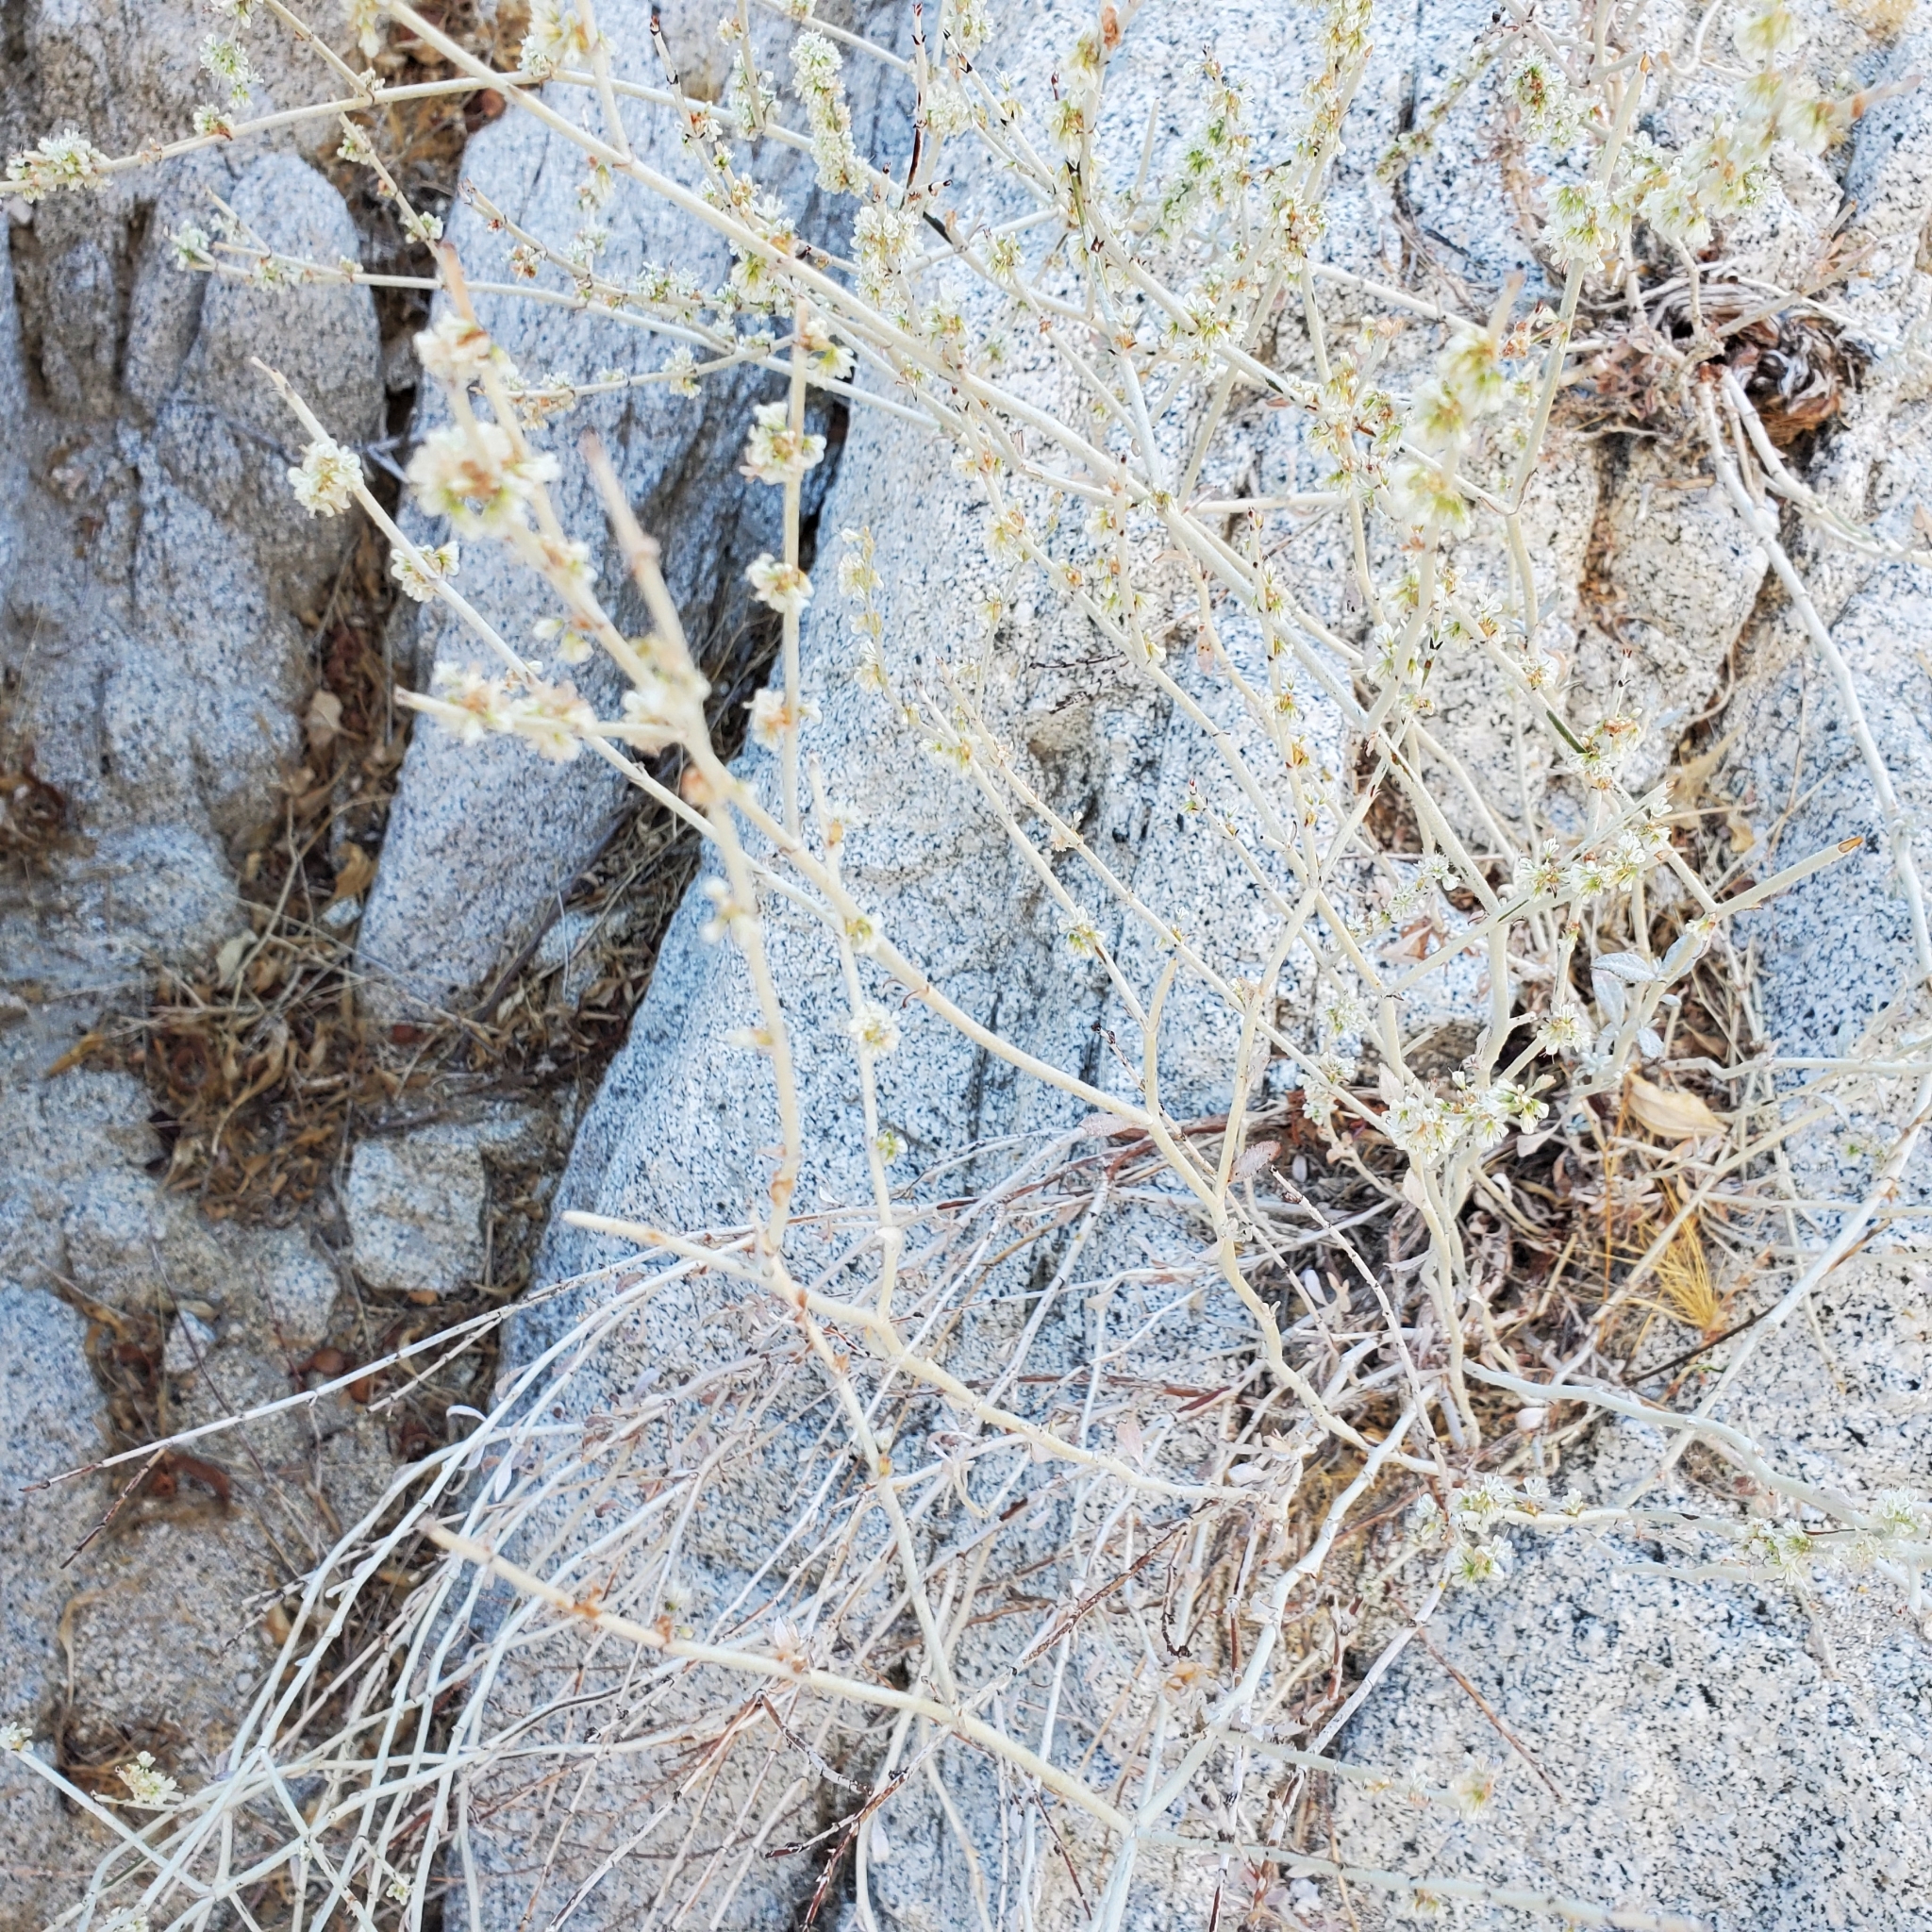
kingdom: Plantae
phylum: Tracheophyta
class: Magnoliopsida
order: Caryophyllales
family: Polygonaceae
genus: Eriogonum
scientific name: Eriogonum wrightii
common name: Bastard-sage
